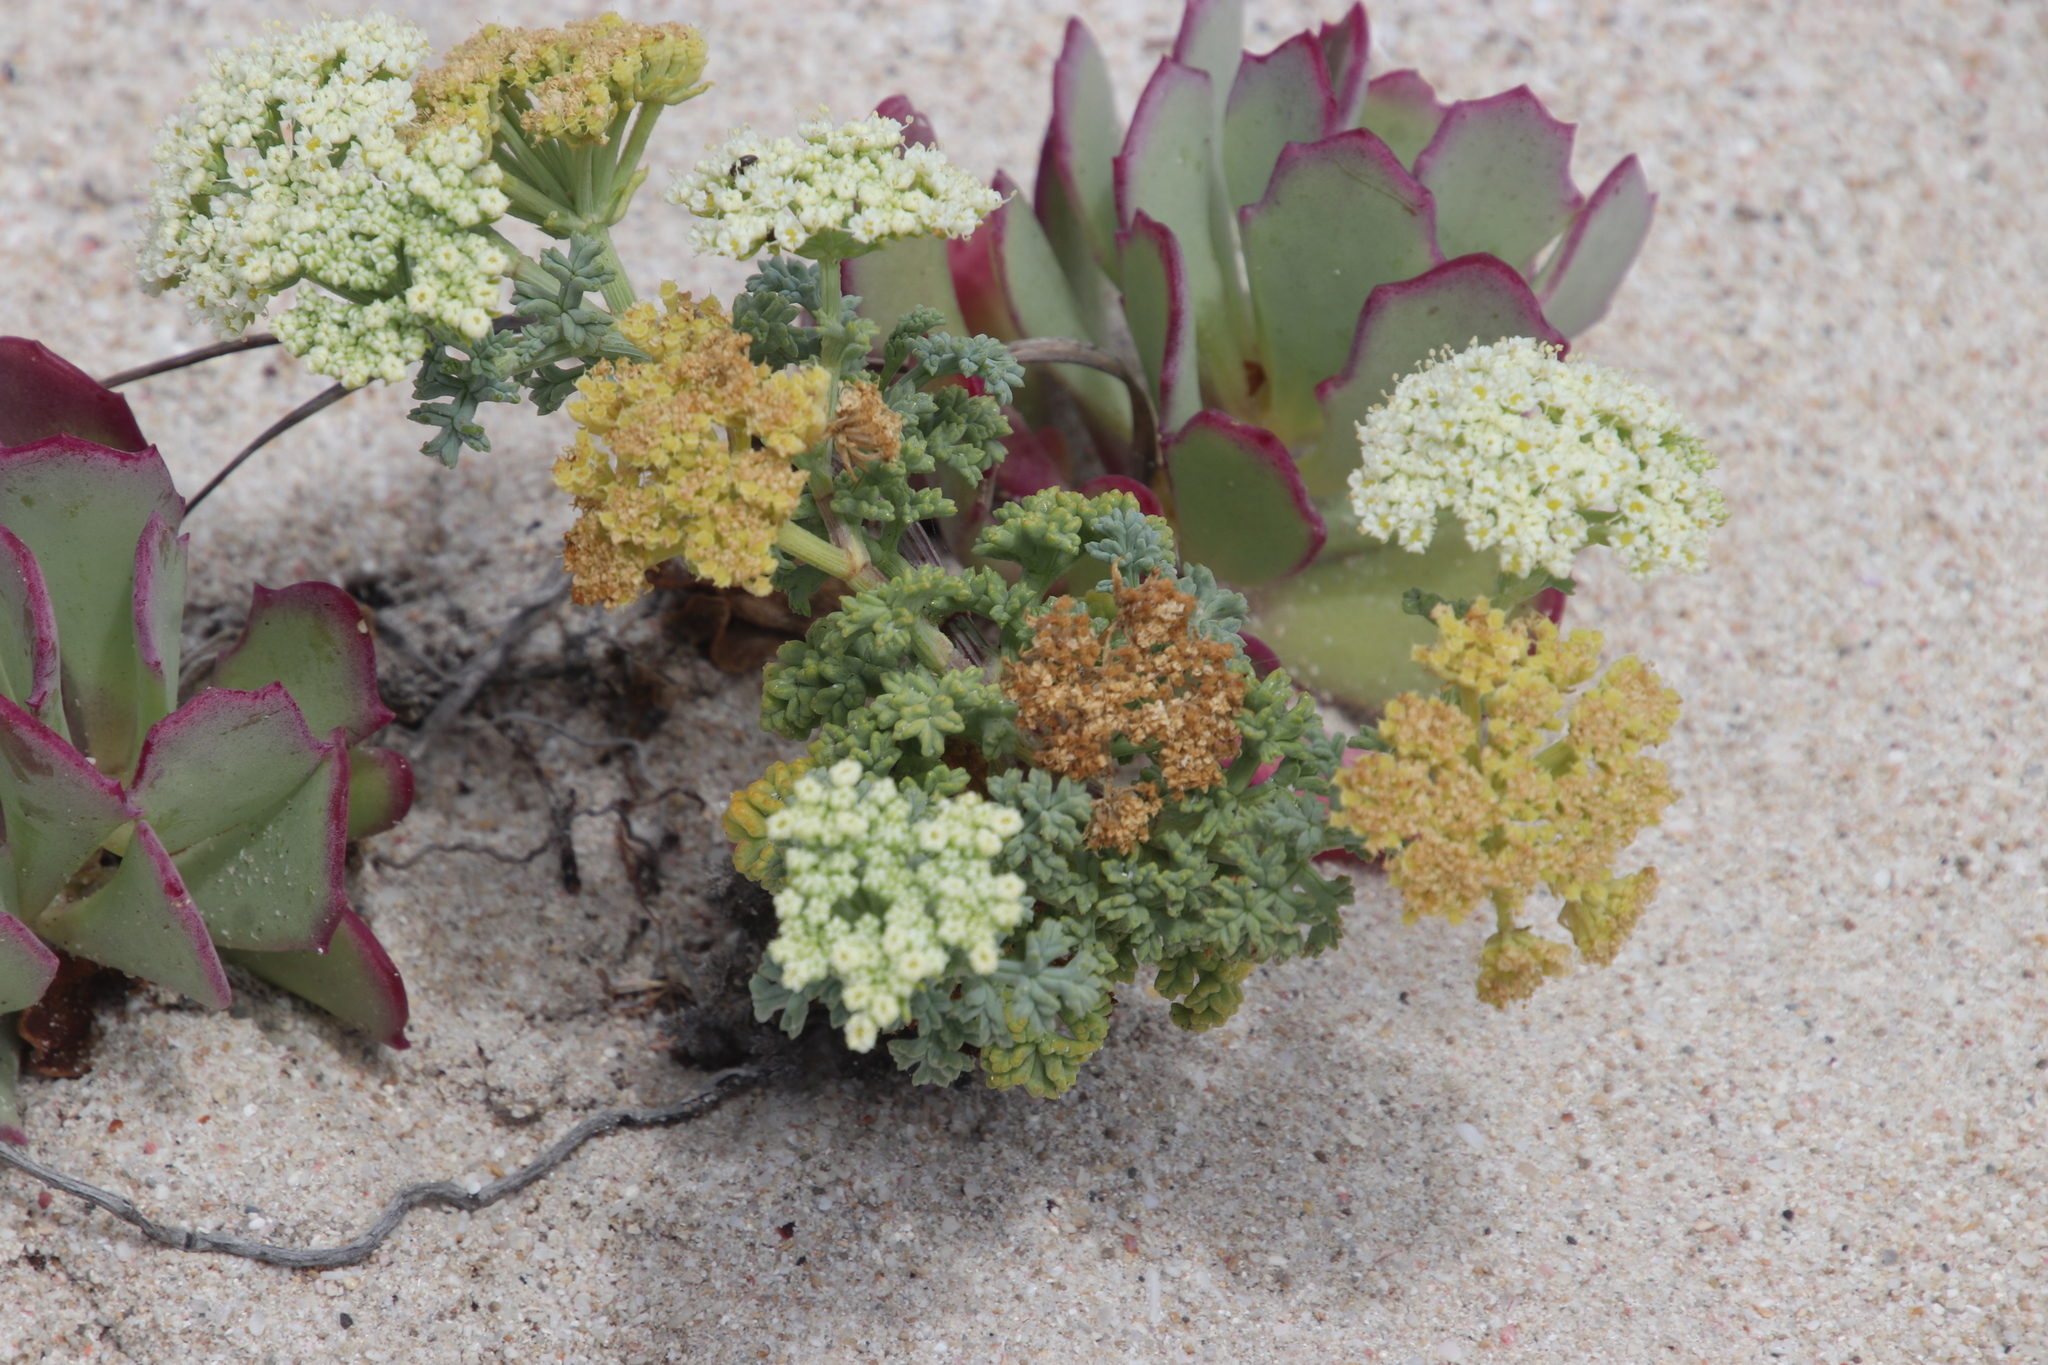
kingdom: Plantae
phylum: Tracheophyta
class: Magnoliopsida
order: Apiales
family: Apiaceae
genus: Dasispermum
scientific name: Dasispermum suffruticosum
